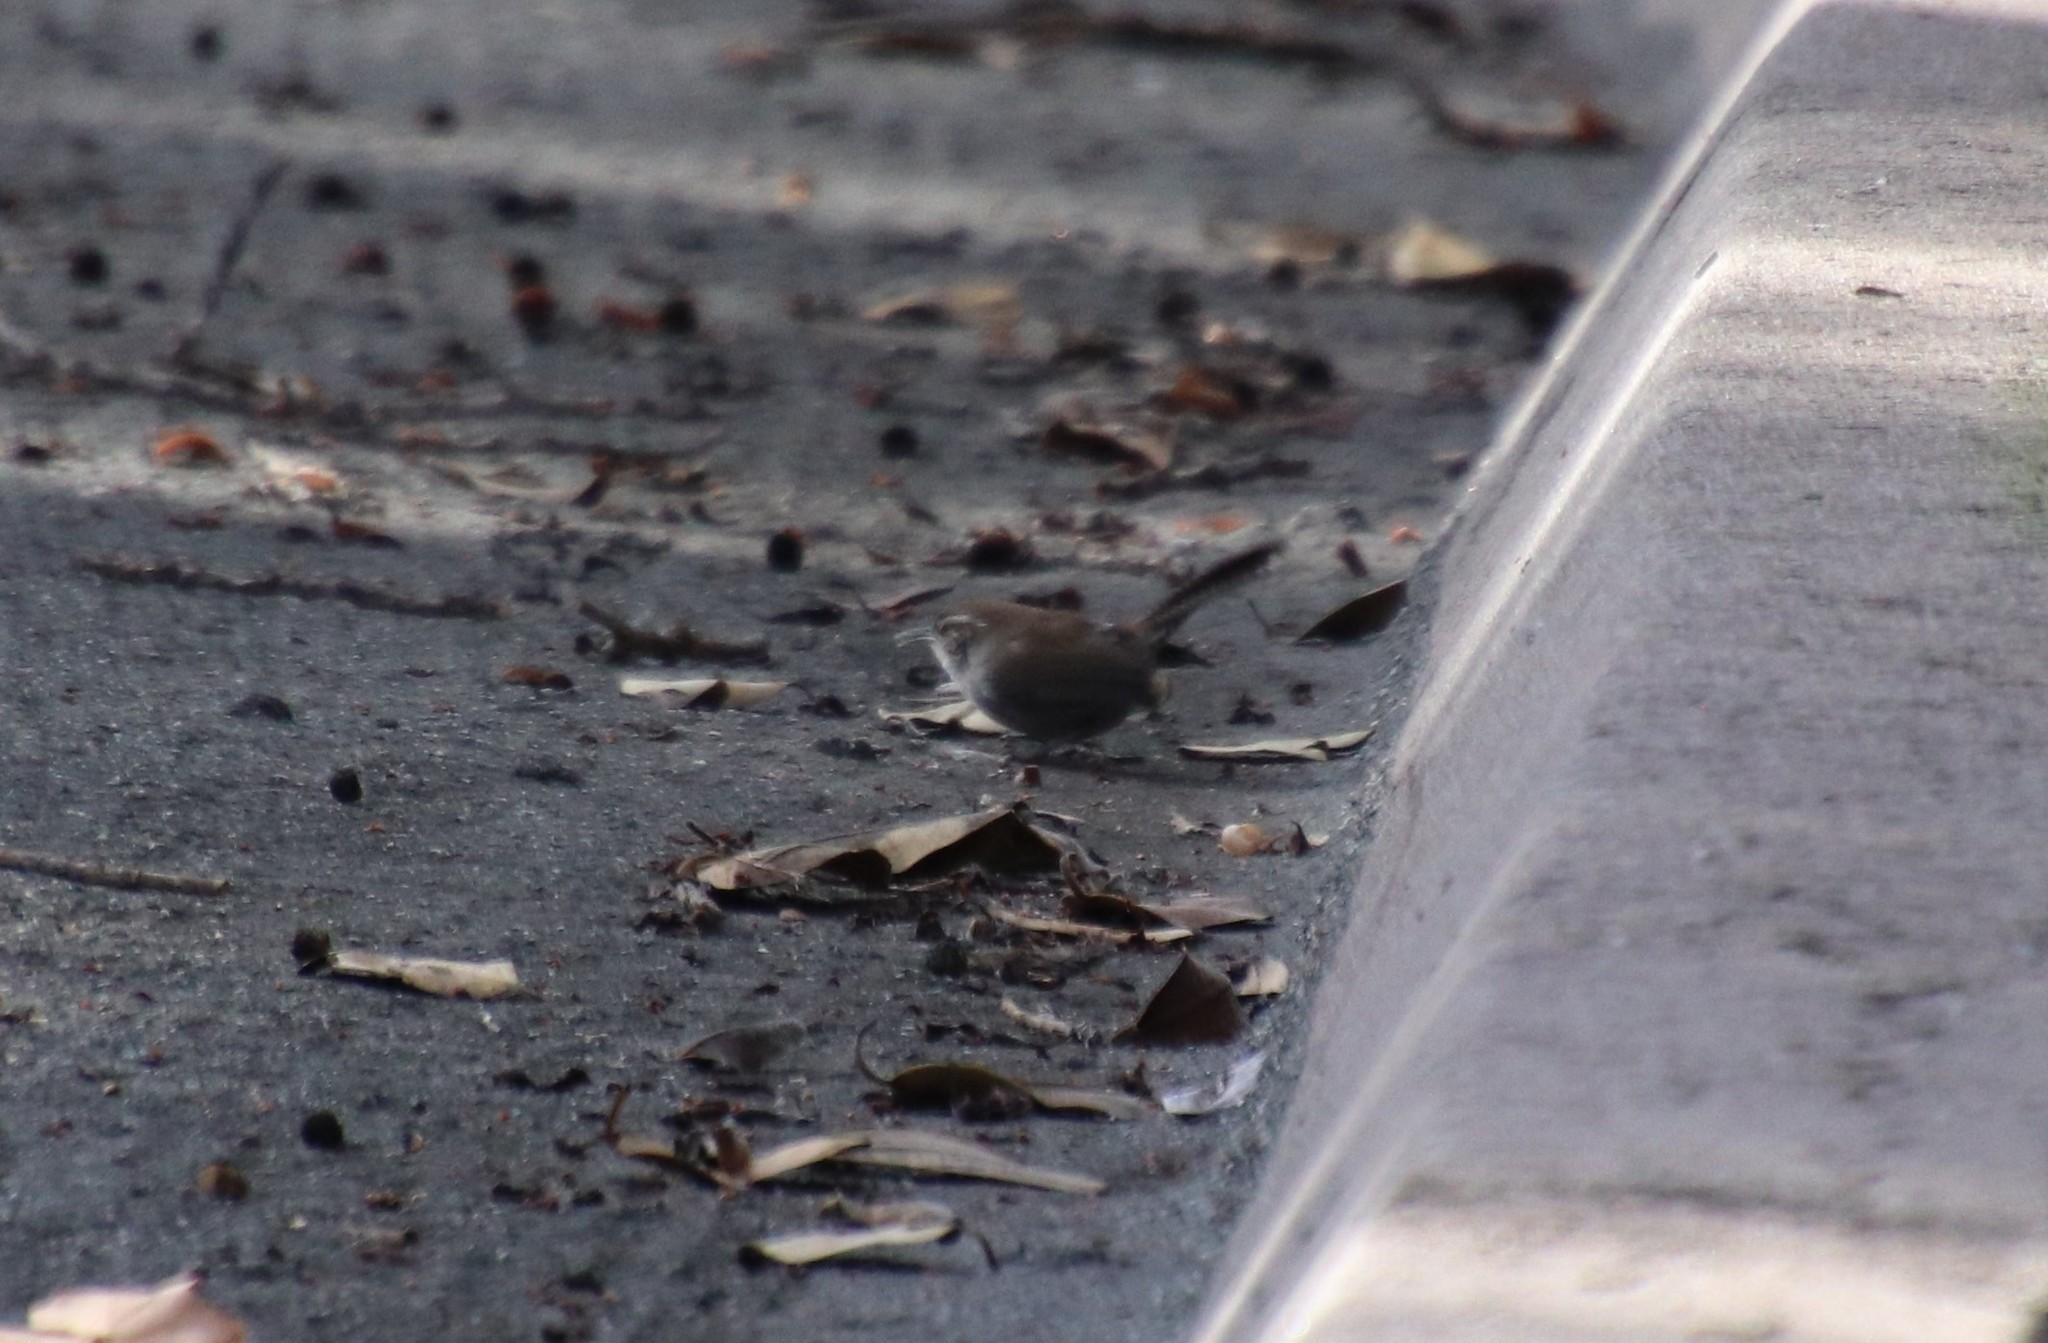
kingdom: Animalia
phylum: Chordata
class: Aves
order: Passeriformes
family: Troglodytidae
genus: Thryomanes
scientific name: Thryomanes bewickii
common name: Bewick's wren
